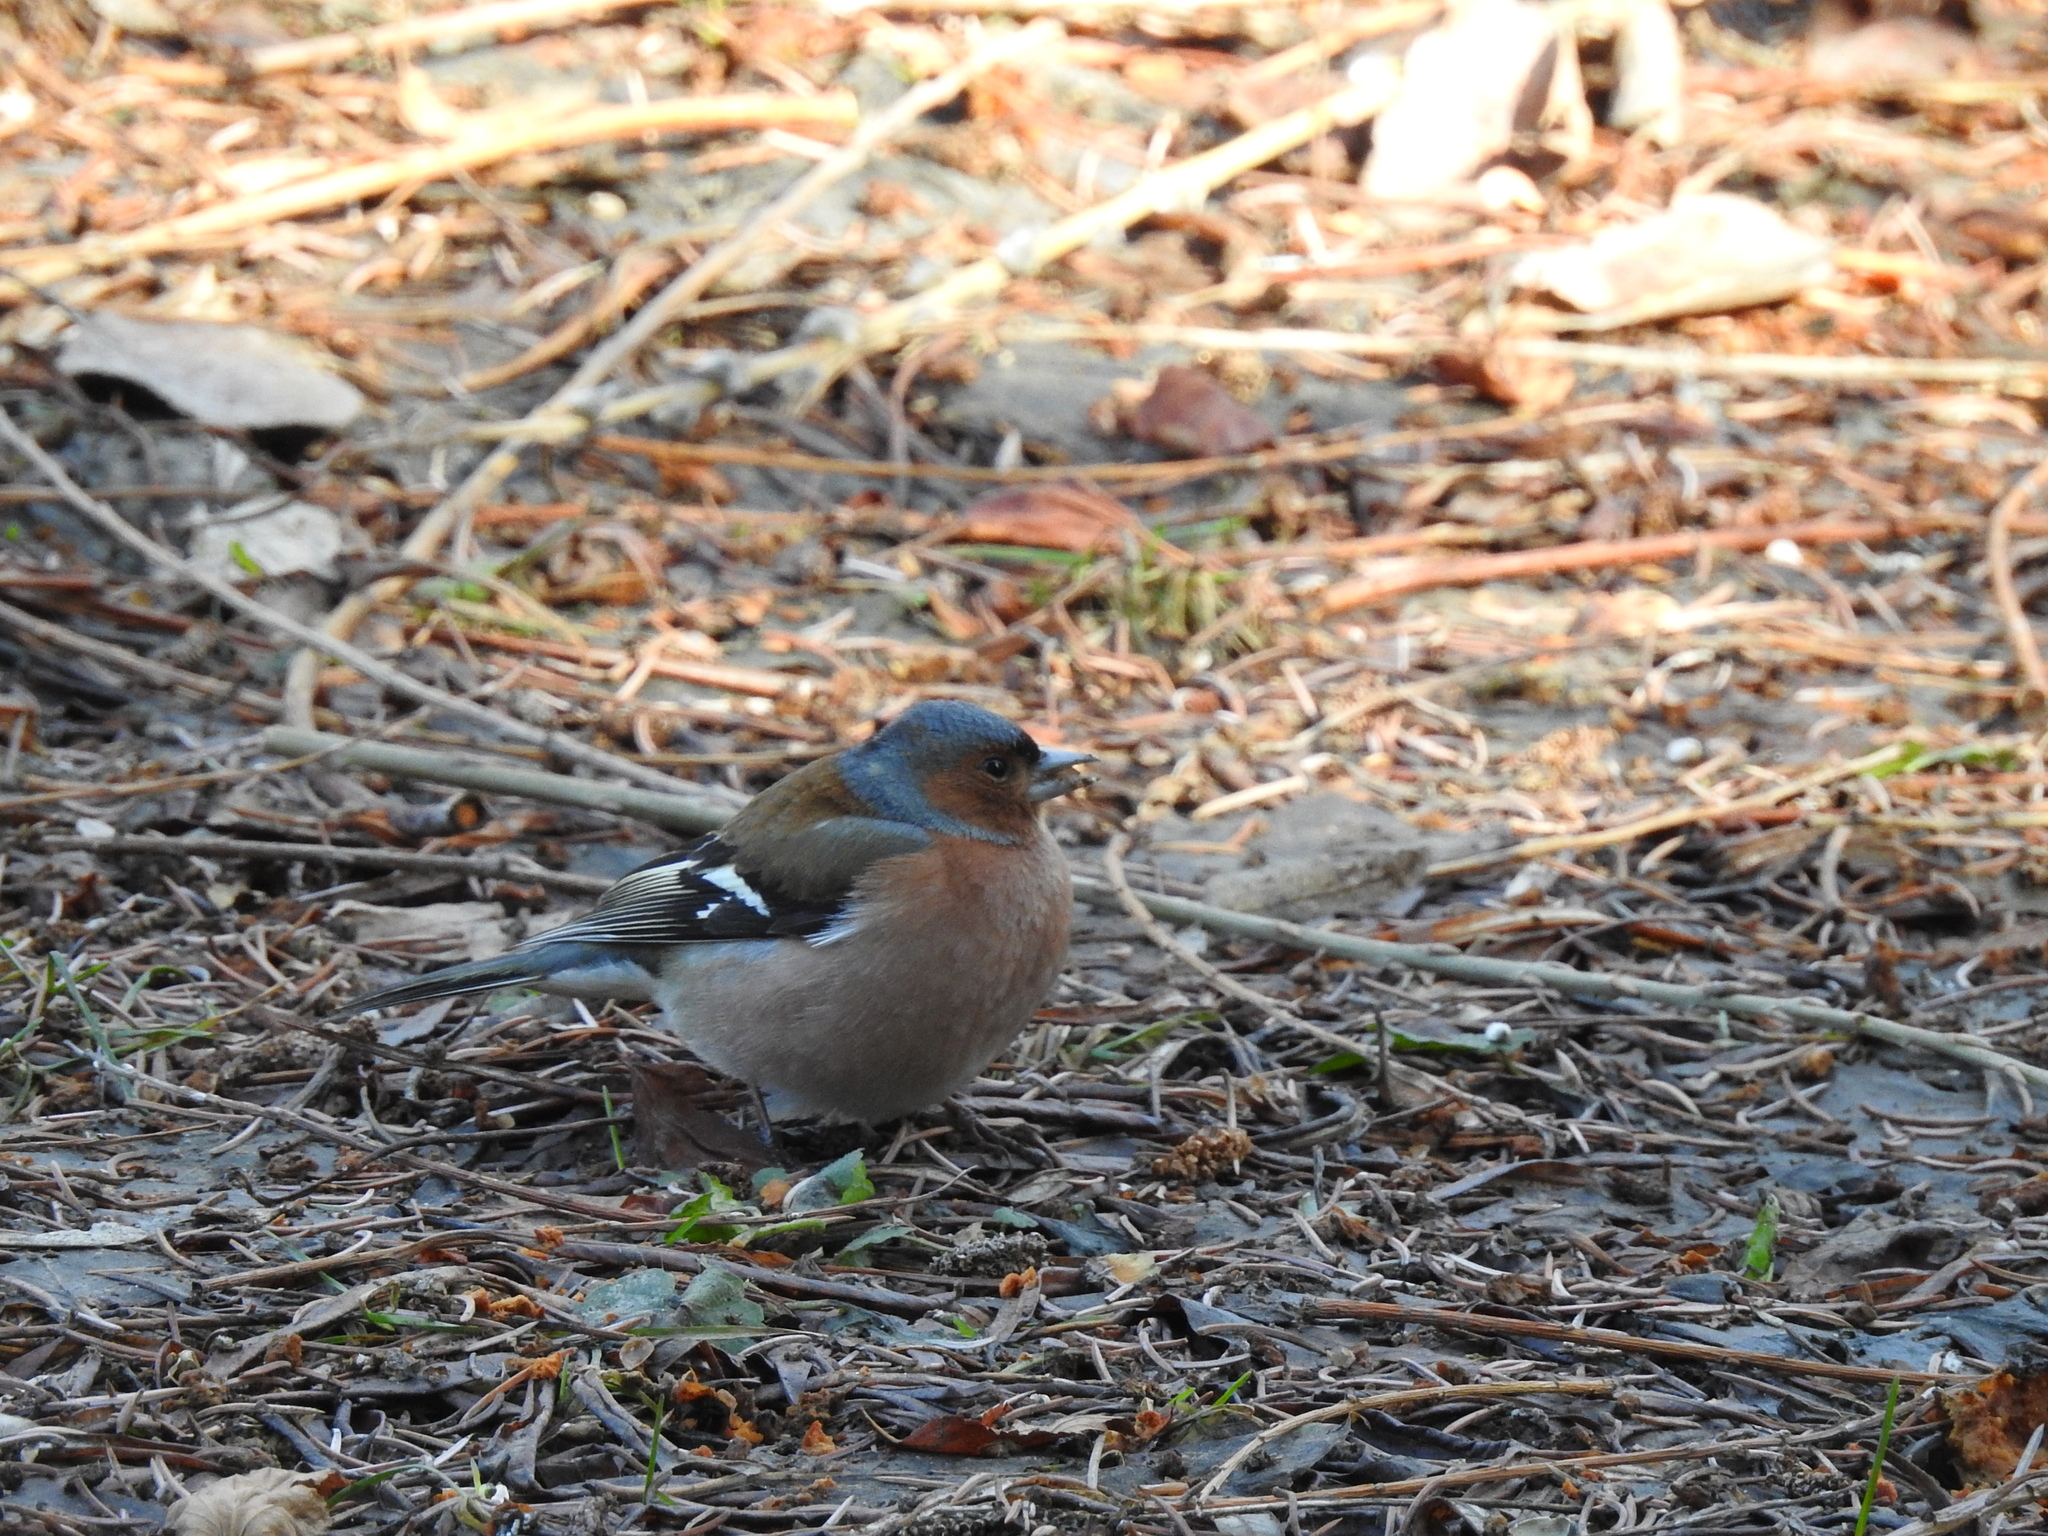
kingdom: Animalia
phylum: Chordata
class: Aves
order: Passeriformes
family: Fringillidae
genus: Fringilla
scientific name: Fringilla coelebs
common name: Common chaffinch
